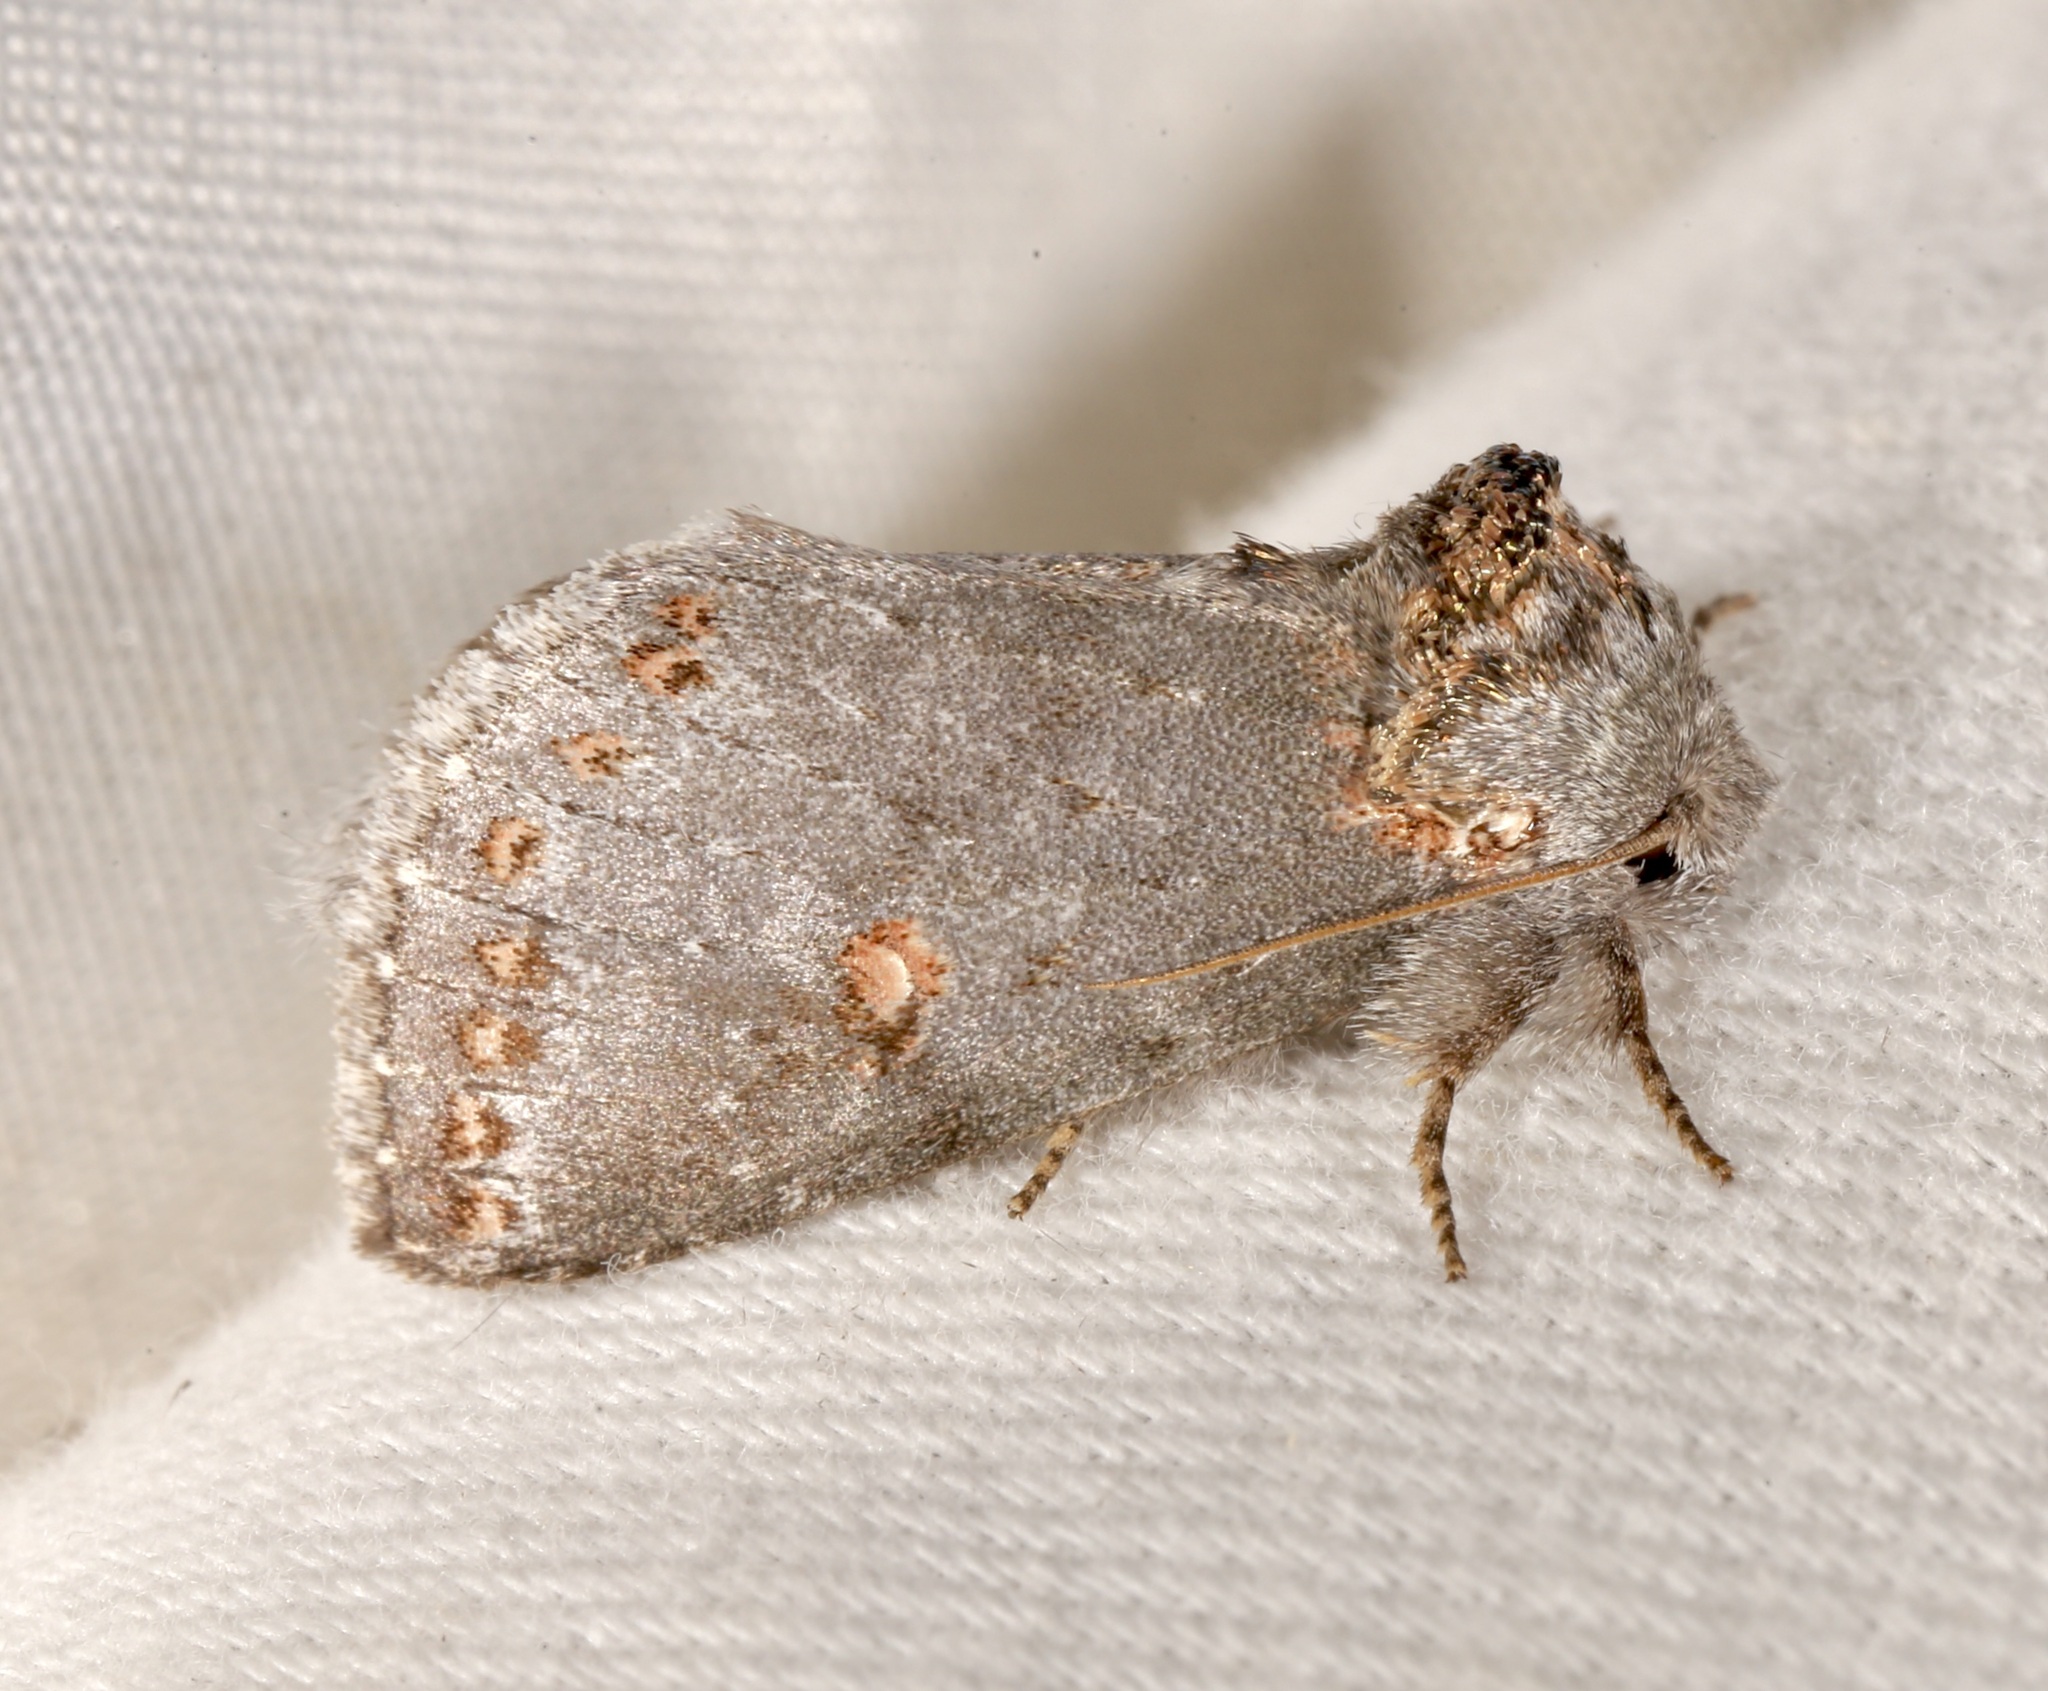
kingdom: Animalia
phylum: Arthropoda
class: Insecta
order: Lepidoptera
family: Notodontidae
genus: Theroa
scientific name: Theroa zethus
